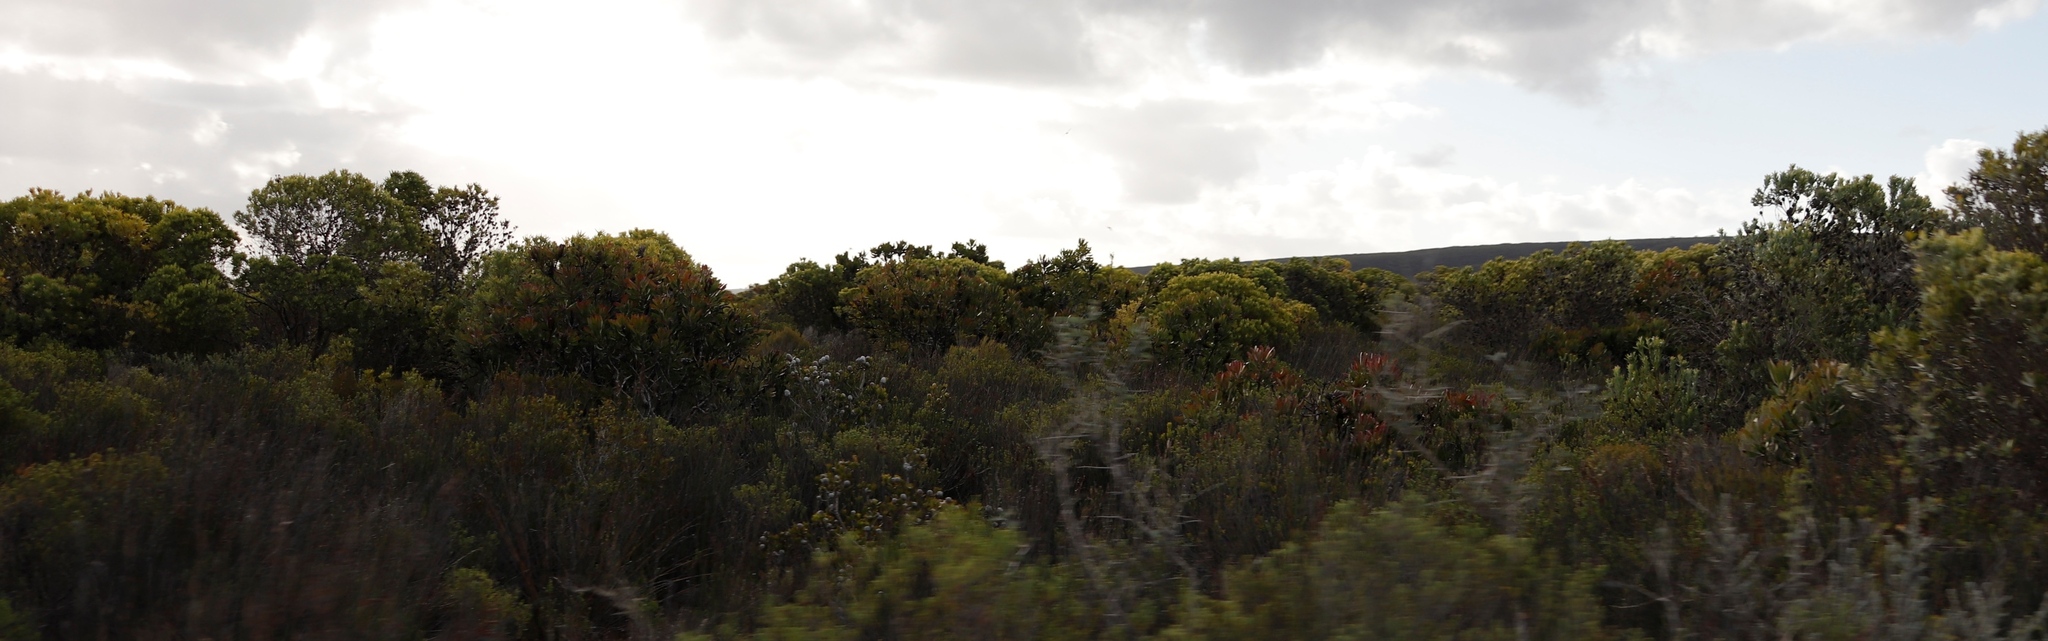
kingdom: Plantae
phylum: Tracheophyta
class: Magnoliopsida
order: Proteales
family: Proteaceae
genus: Leucadendron
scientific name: Leucadendron muirii
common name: Silver-ball conebush
